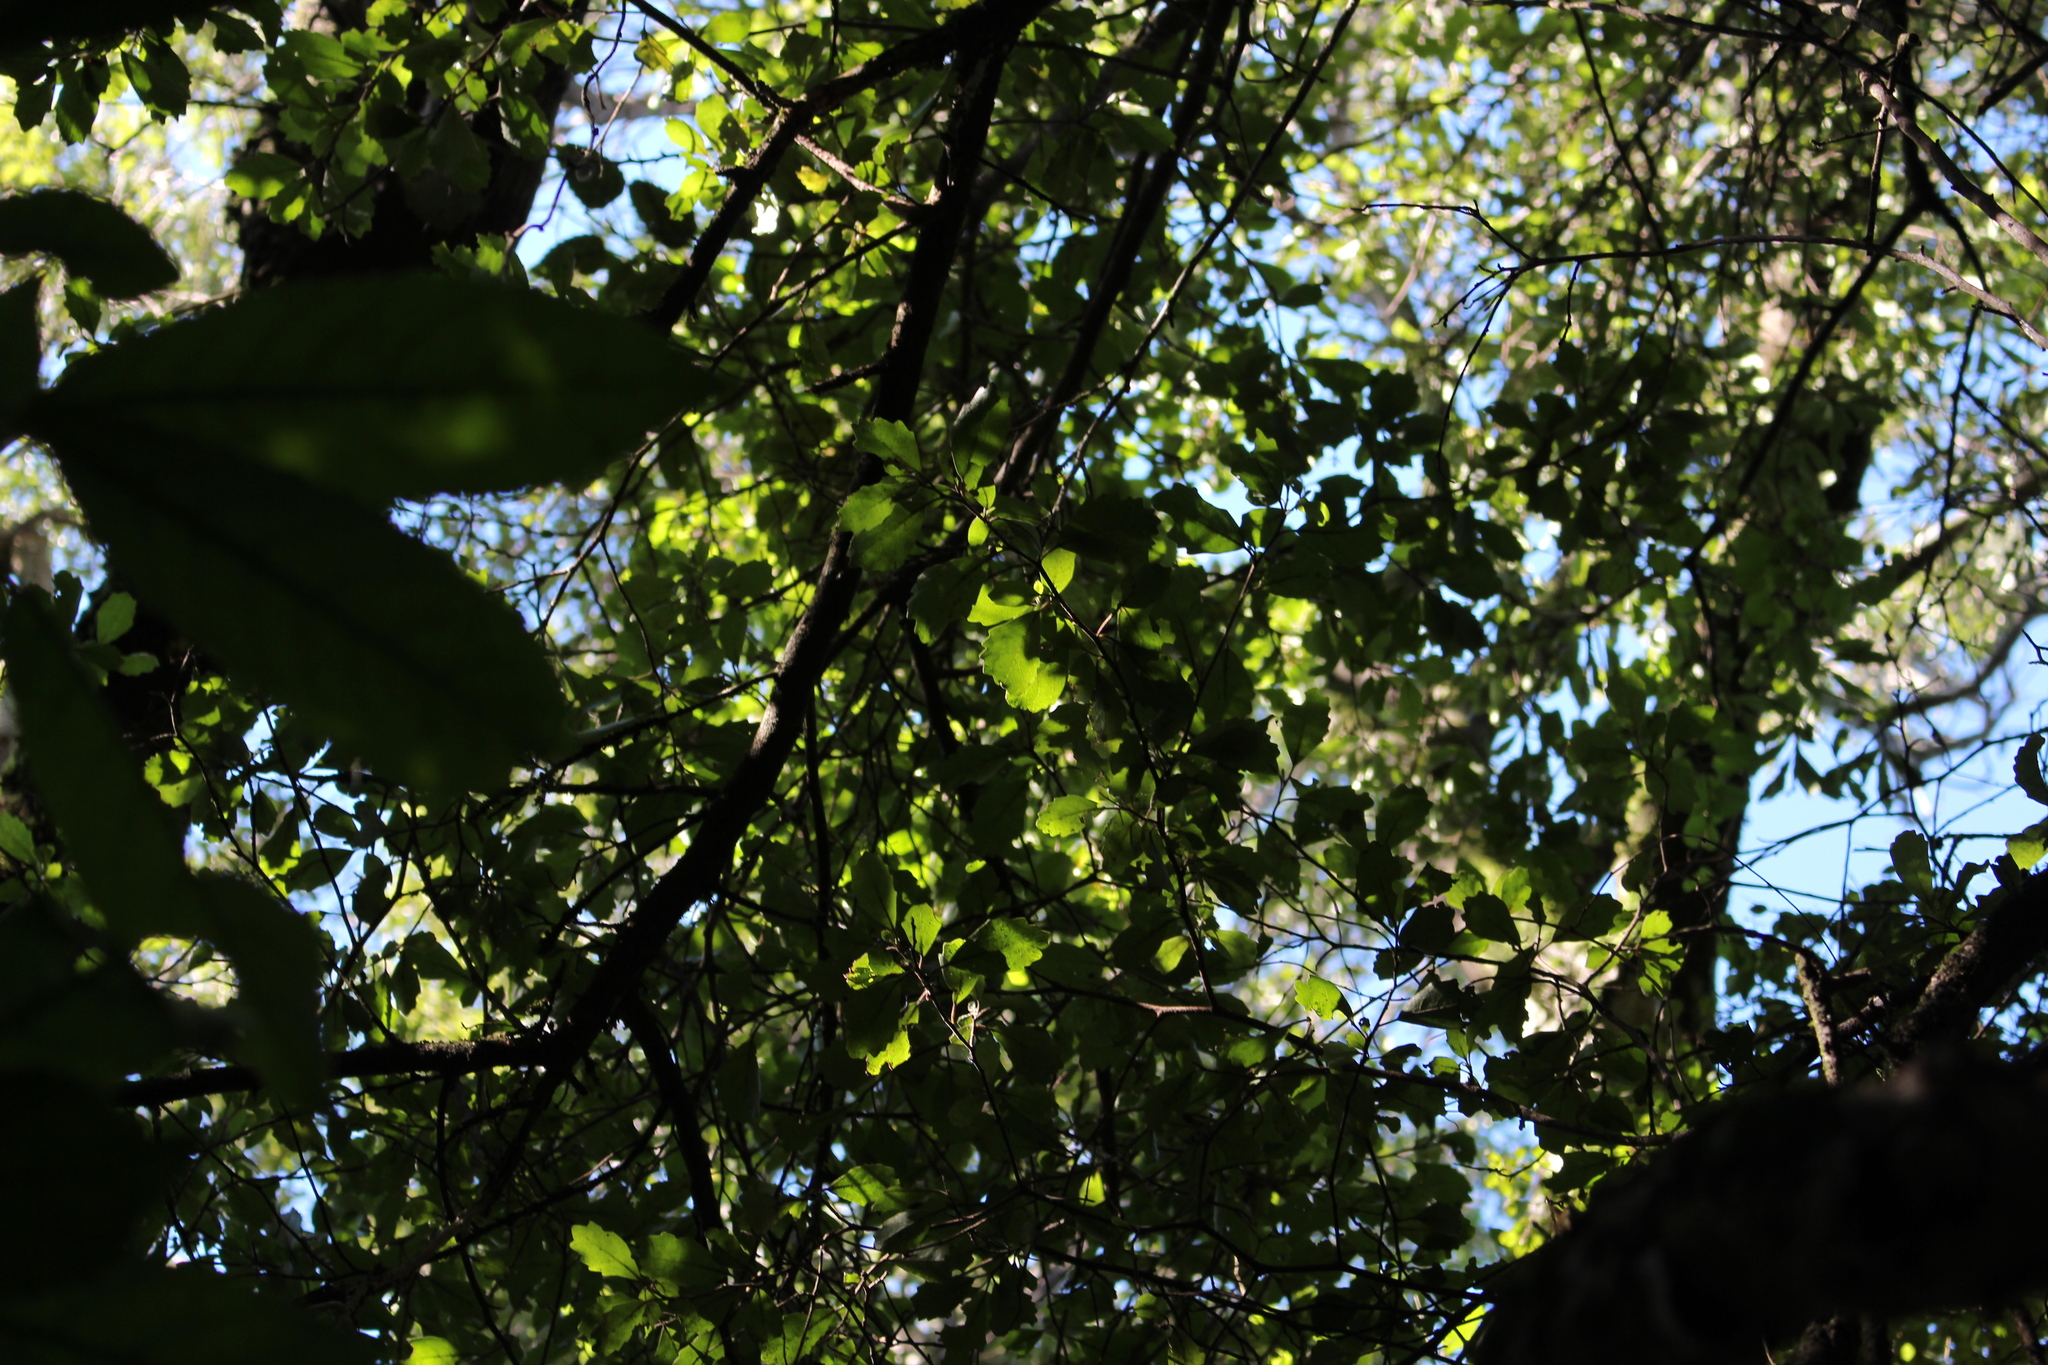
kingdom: Plantae
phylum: Tracheophyta
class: Magnoliopsida
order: Apiales
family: Pennantiaceae
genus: Pennantia
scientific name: Pennantia corymbosa
